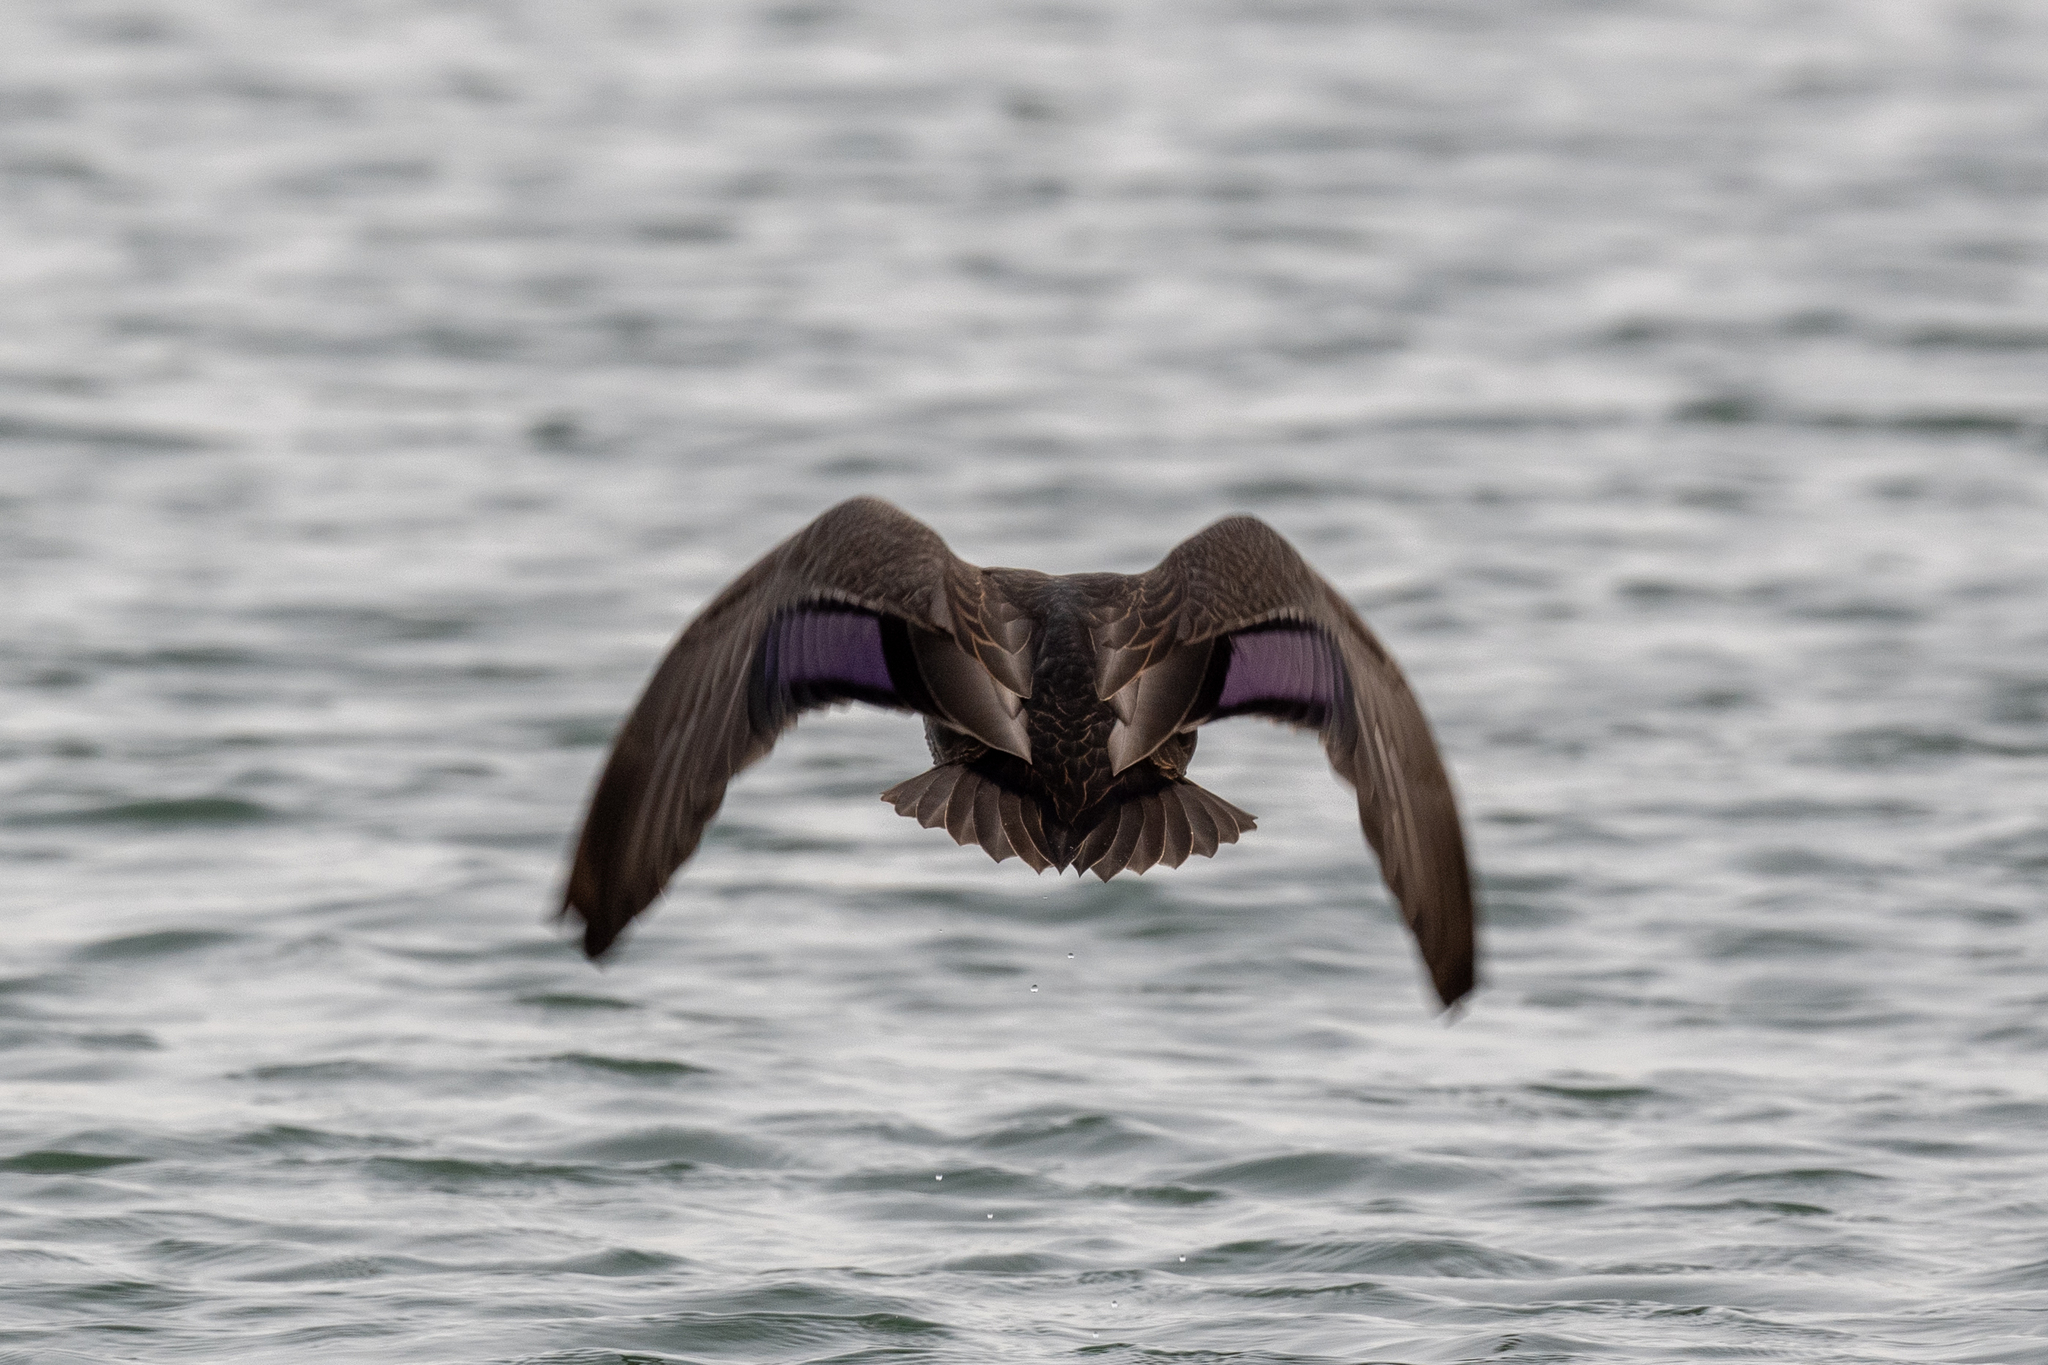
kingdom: Animalia
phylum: Chordata
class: Aves
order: Anseriformes
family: Anatidae
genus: Anas
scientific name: Anas
